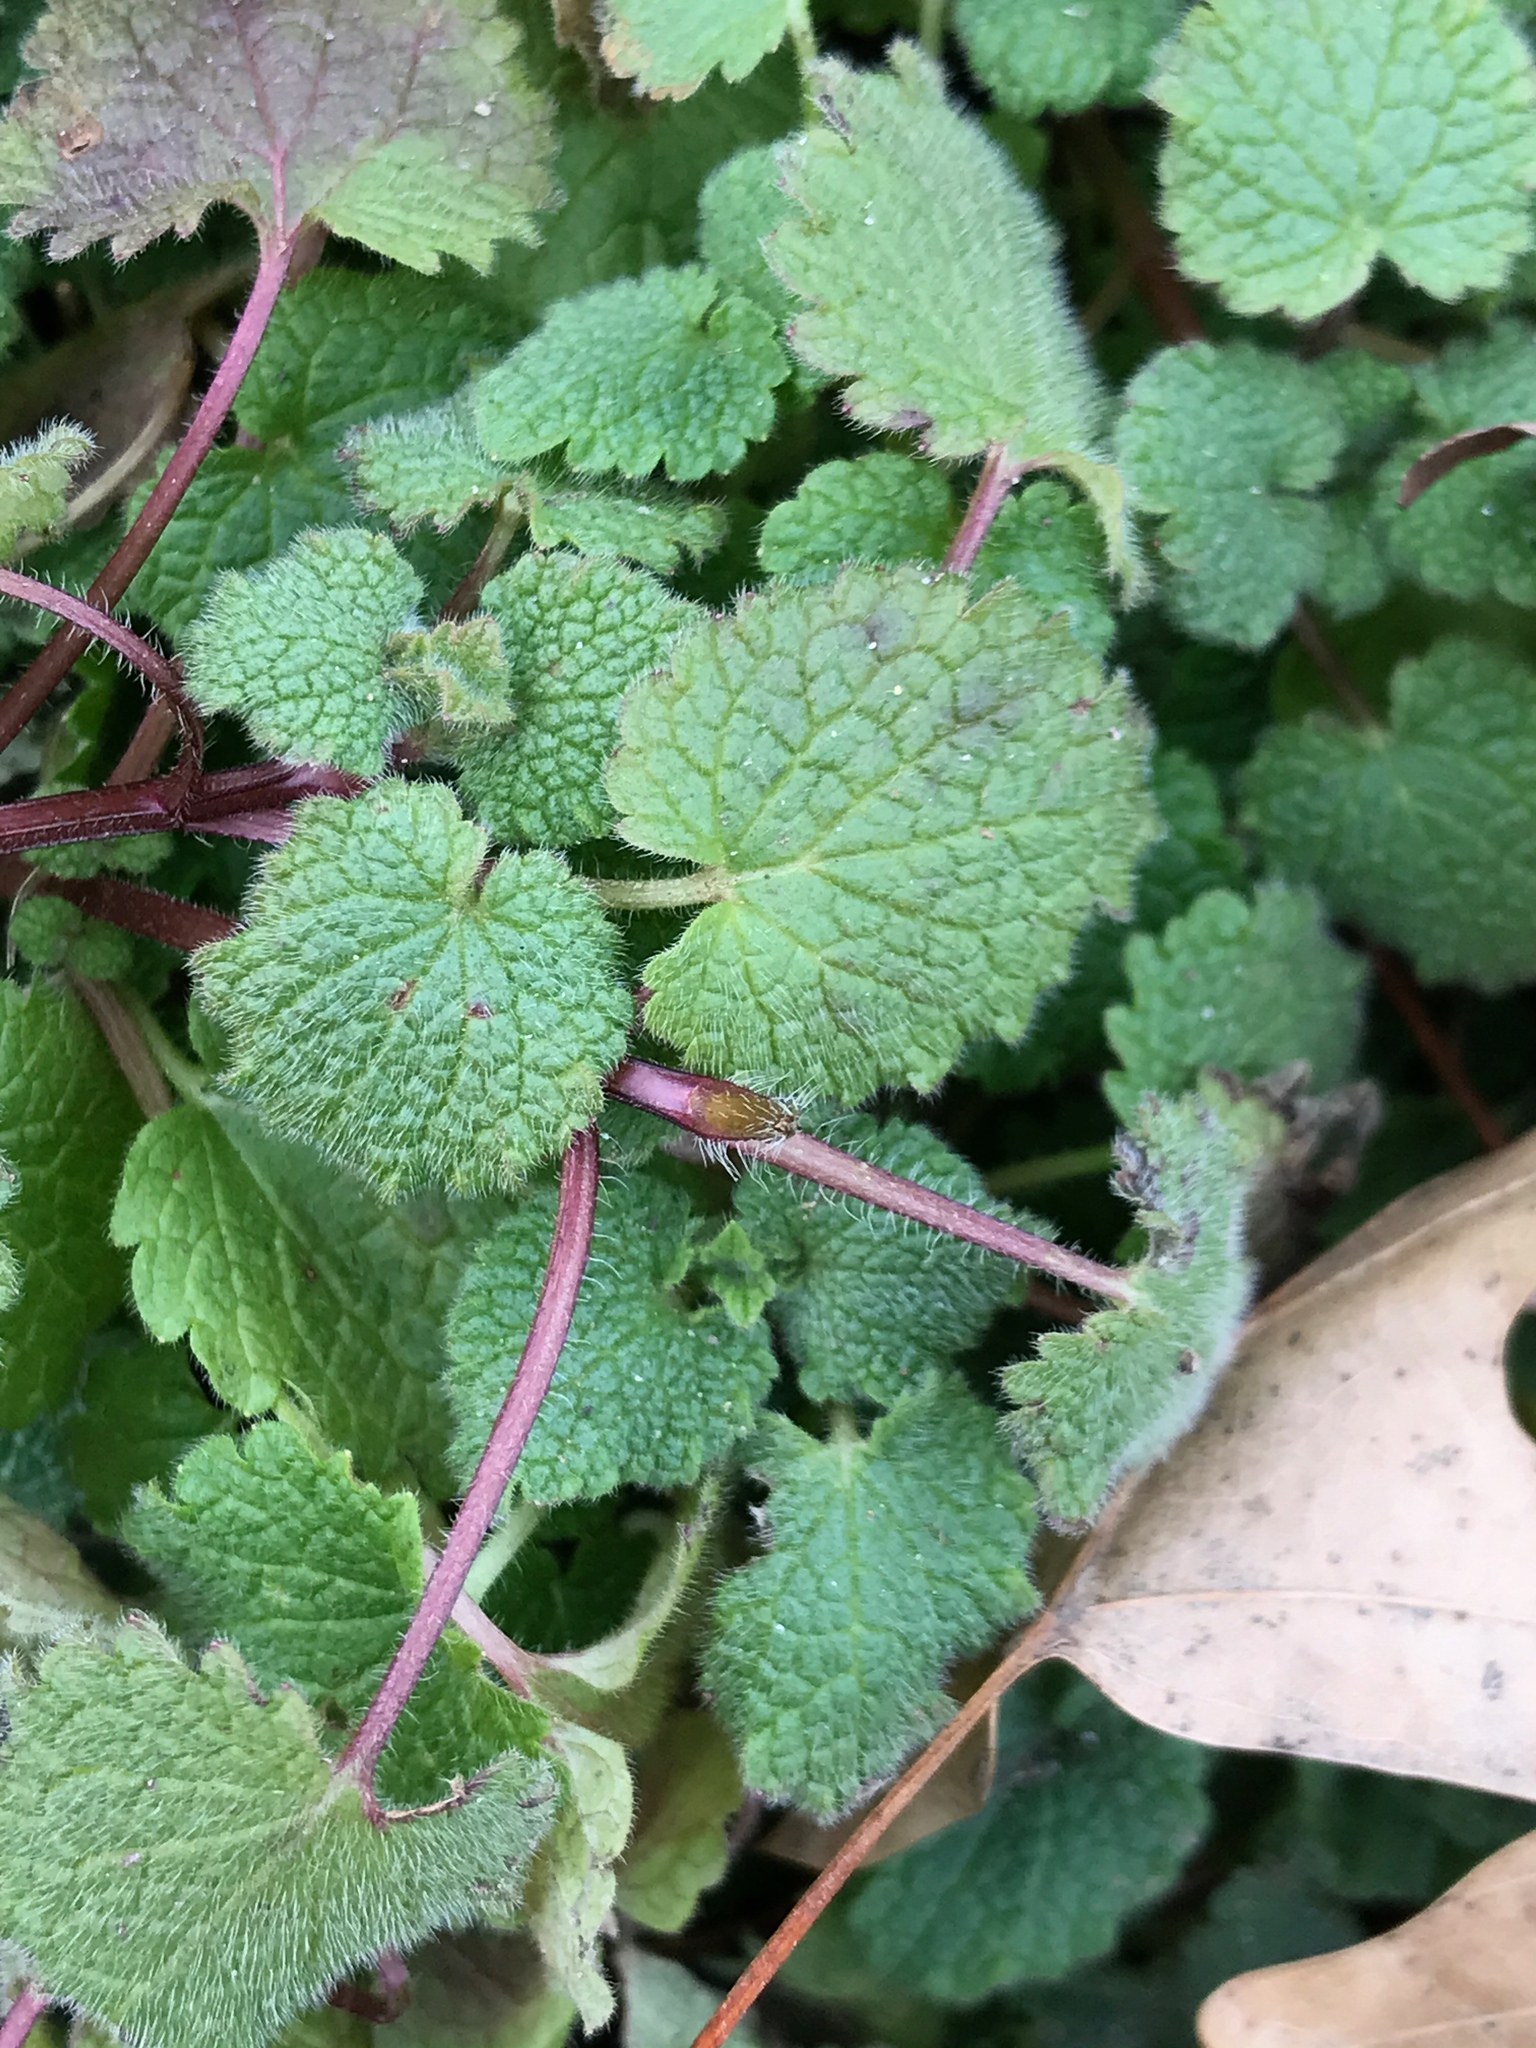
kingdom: Plantae
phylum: Tracheophyta
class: Magnoliopsida
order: Lamiales
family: Lamiaceae
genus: Lamium
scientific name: Lamium purpureum
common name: Red dead-nettle
